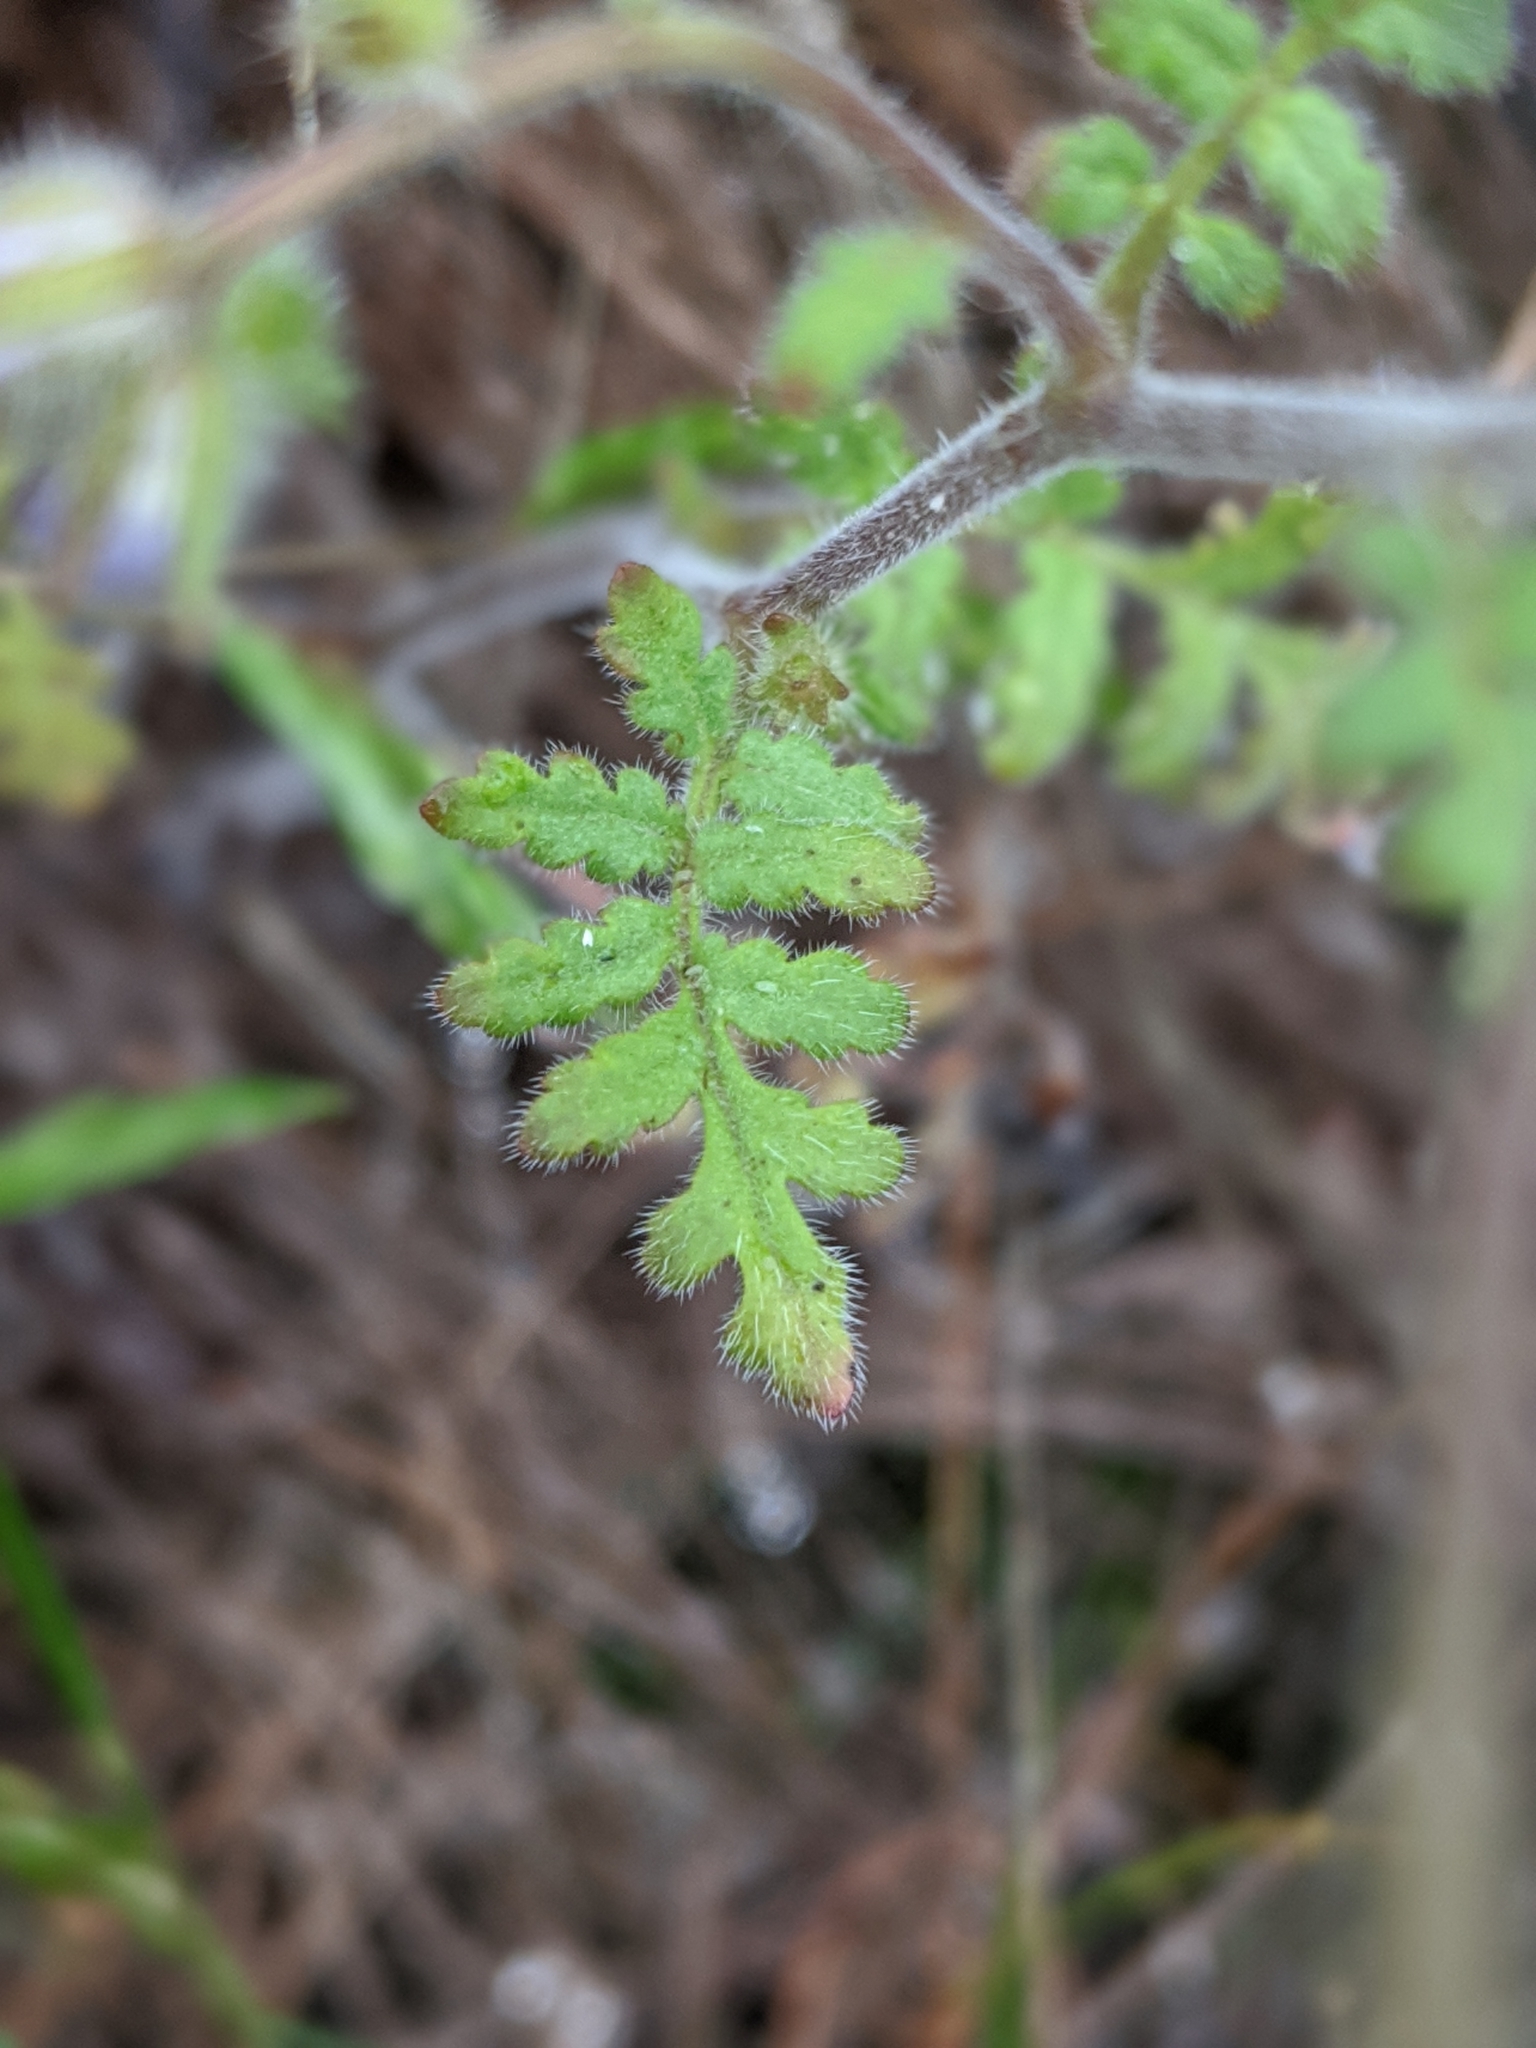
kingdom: Plantae
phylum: Tracheophyta
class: Magnoliopsida
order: Boraginales
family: Hydrophyllaceae
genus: Phacelia
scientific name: Phacelia distans
